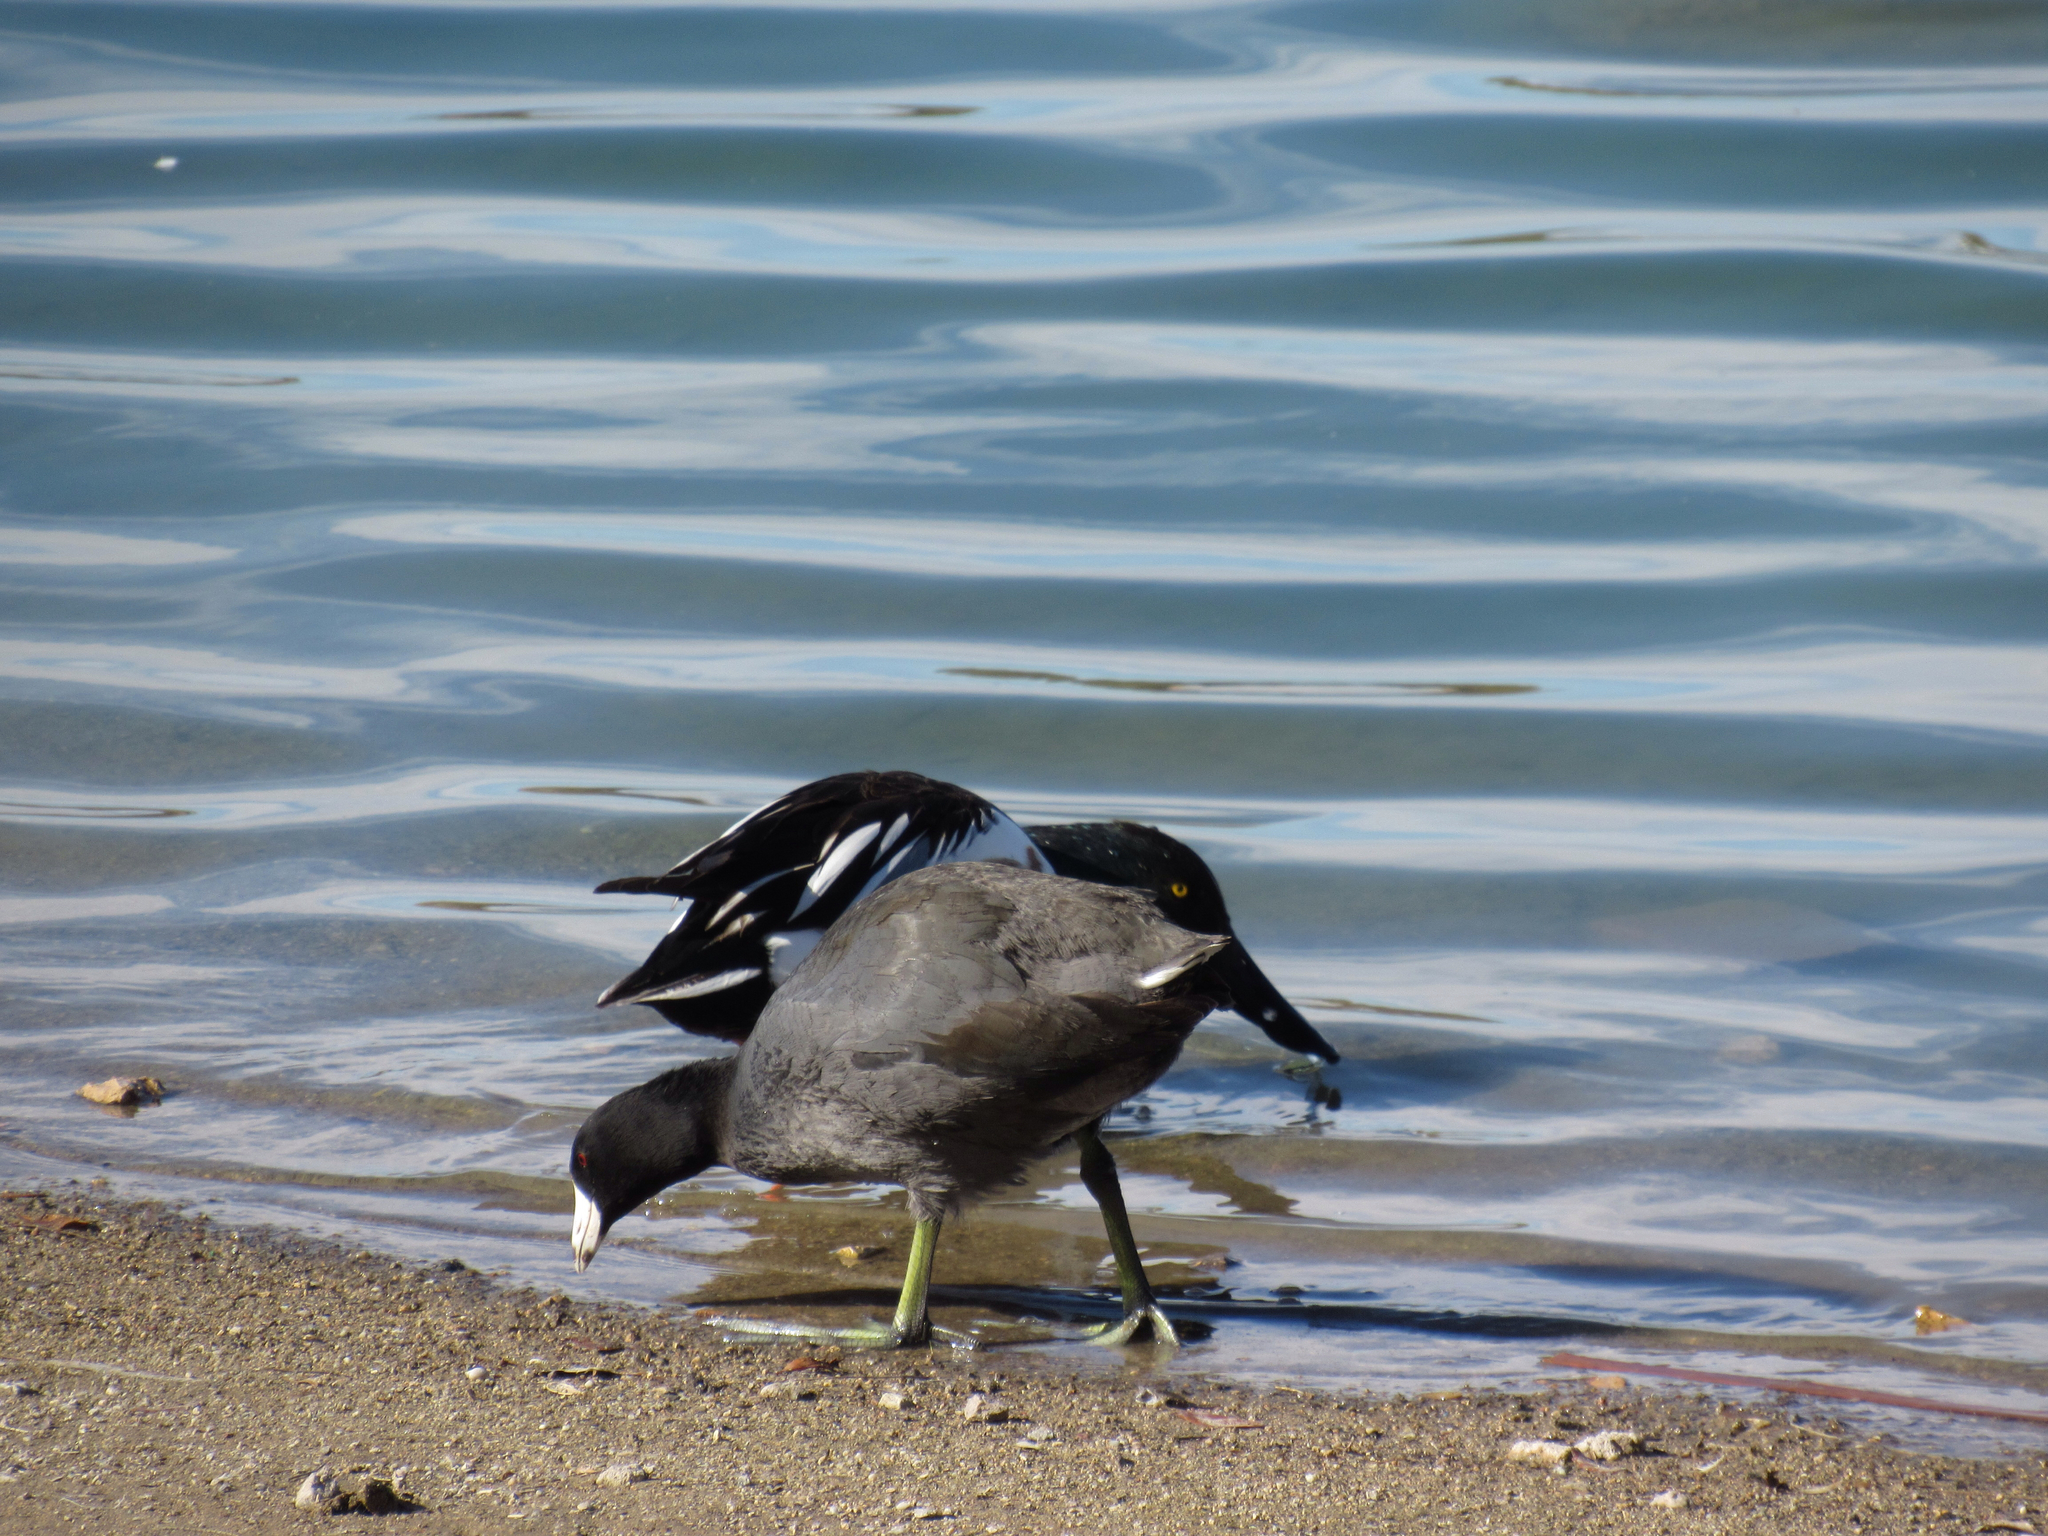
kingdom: Animalia
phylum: Chordata
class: Aves
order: Gruiformes
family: Rallidae
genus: Fulica
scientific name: Fulica americana
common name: American coot
